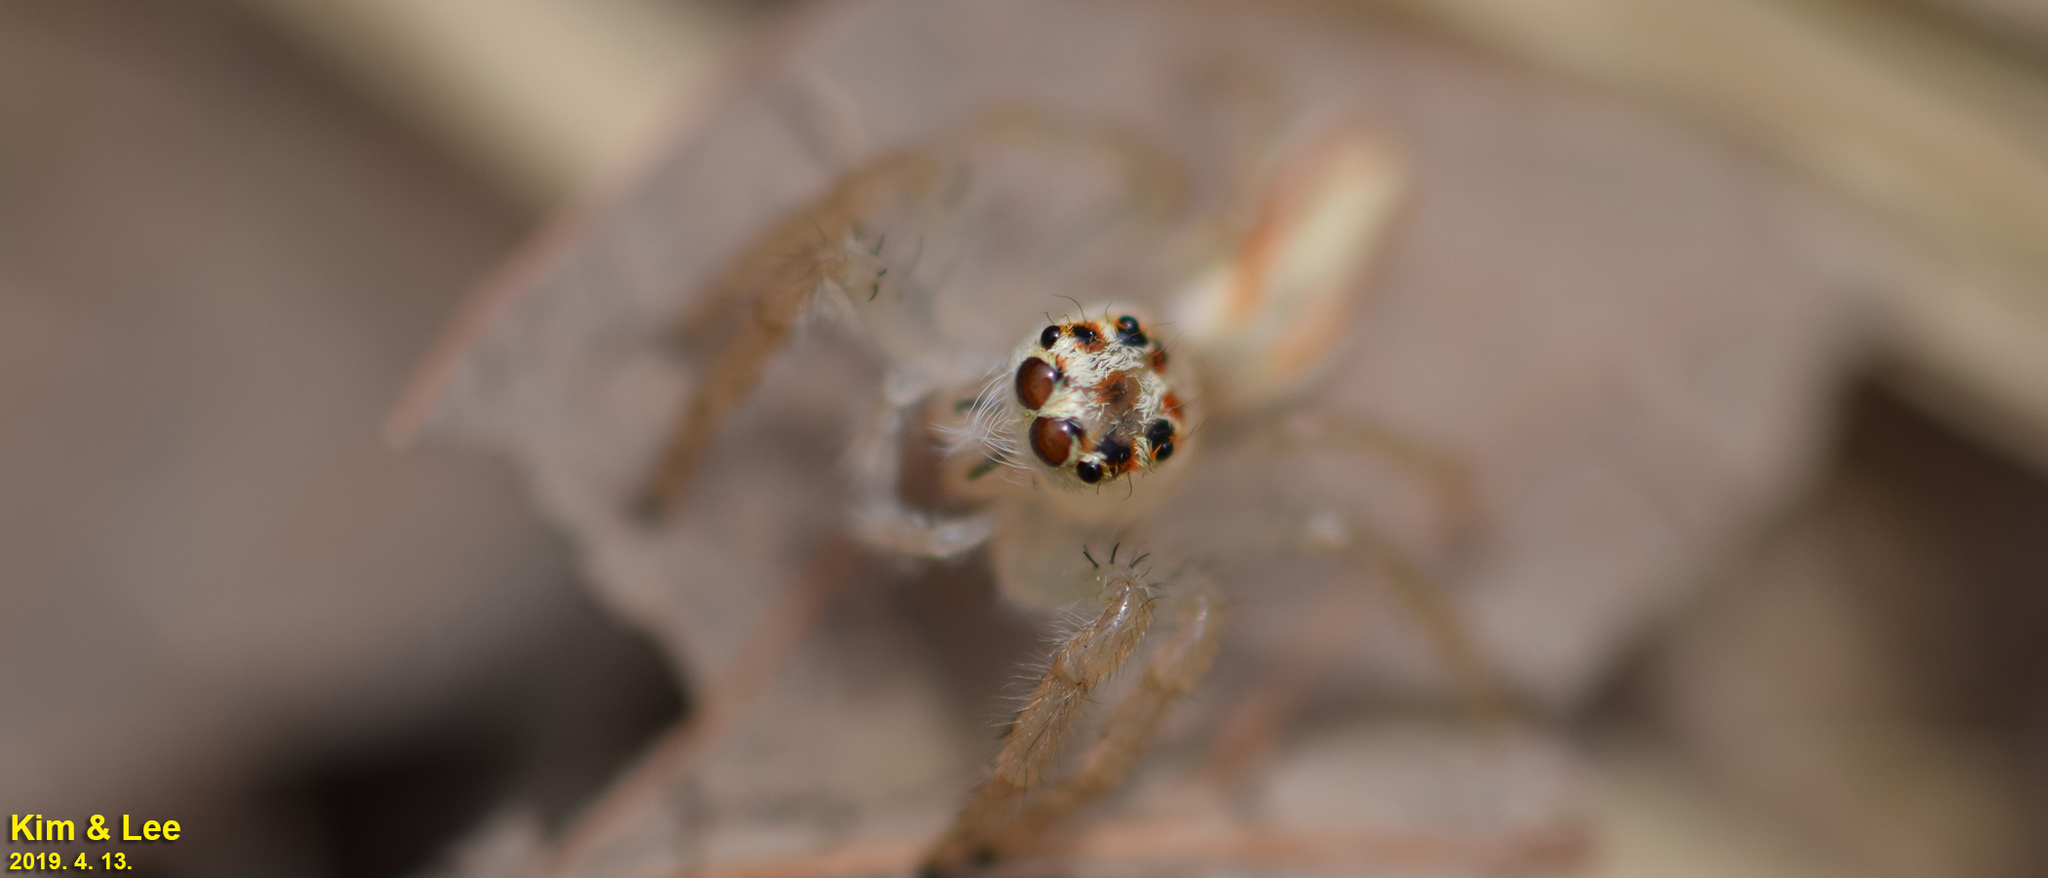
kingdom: Animalia
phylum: Arthropoda
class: Arachnida
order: Araneae
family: Salticidae
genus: Telamonia
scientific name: Telamonia vlijmi
